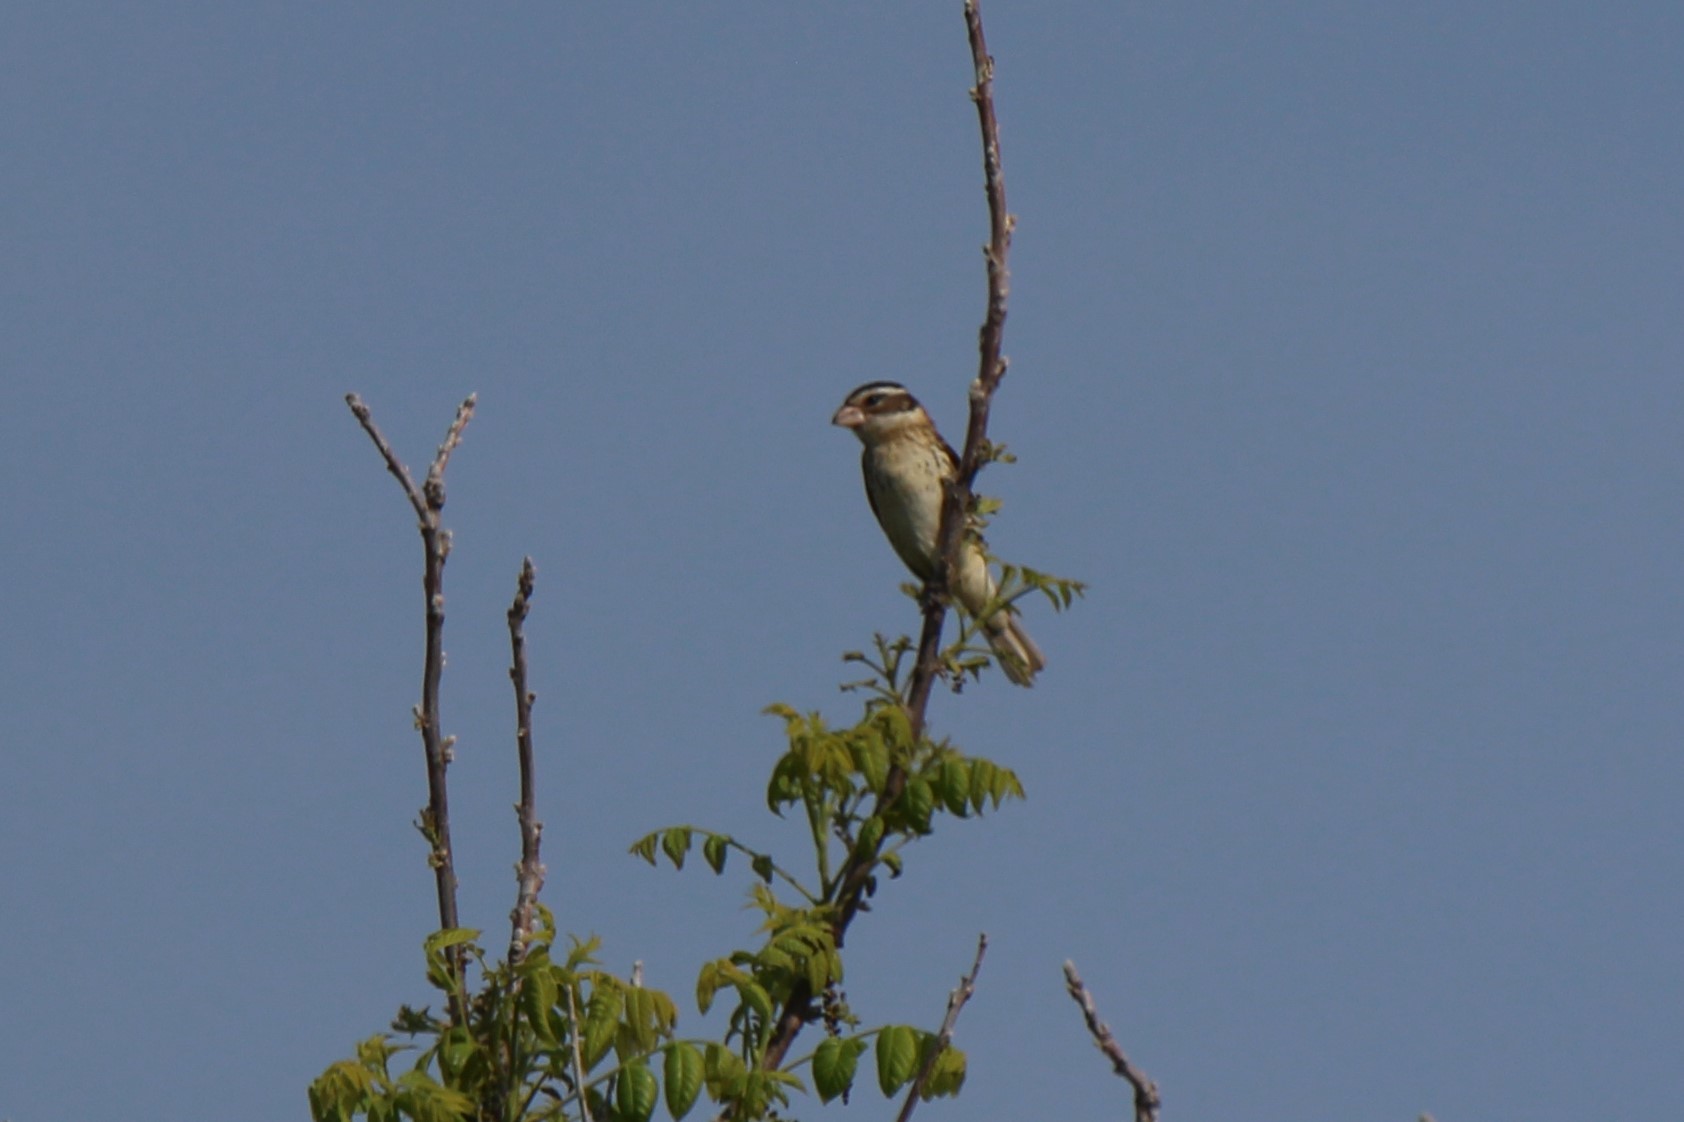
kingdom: Animalia
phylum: Chordata
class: Aves
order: Passeriformes
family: Cardinalidae
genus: Pheucticus
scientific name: Pheucticus ludovicianus
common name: Rose-breasted grosbeak
